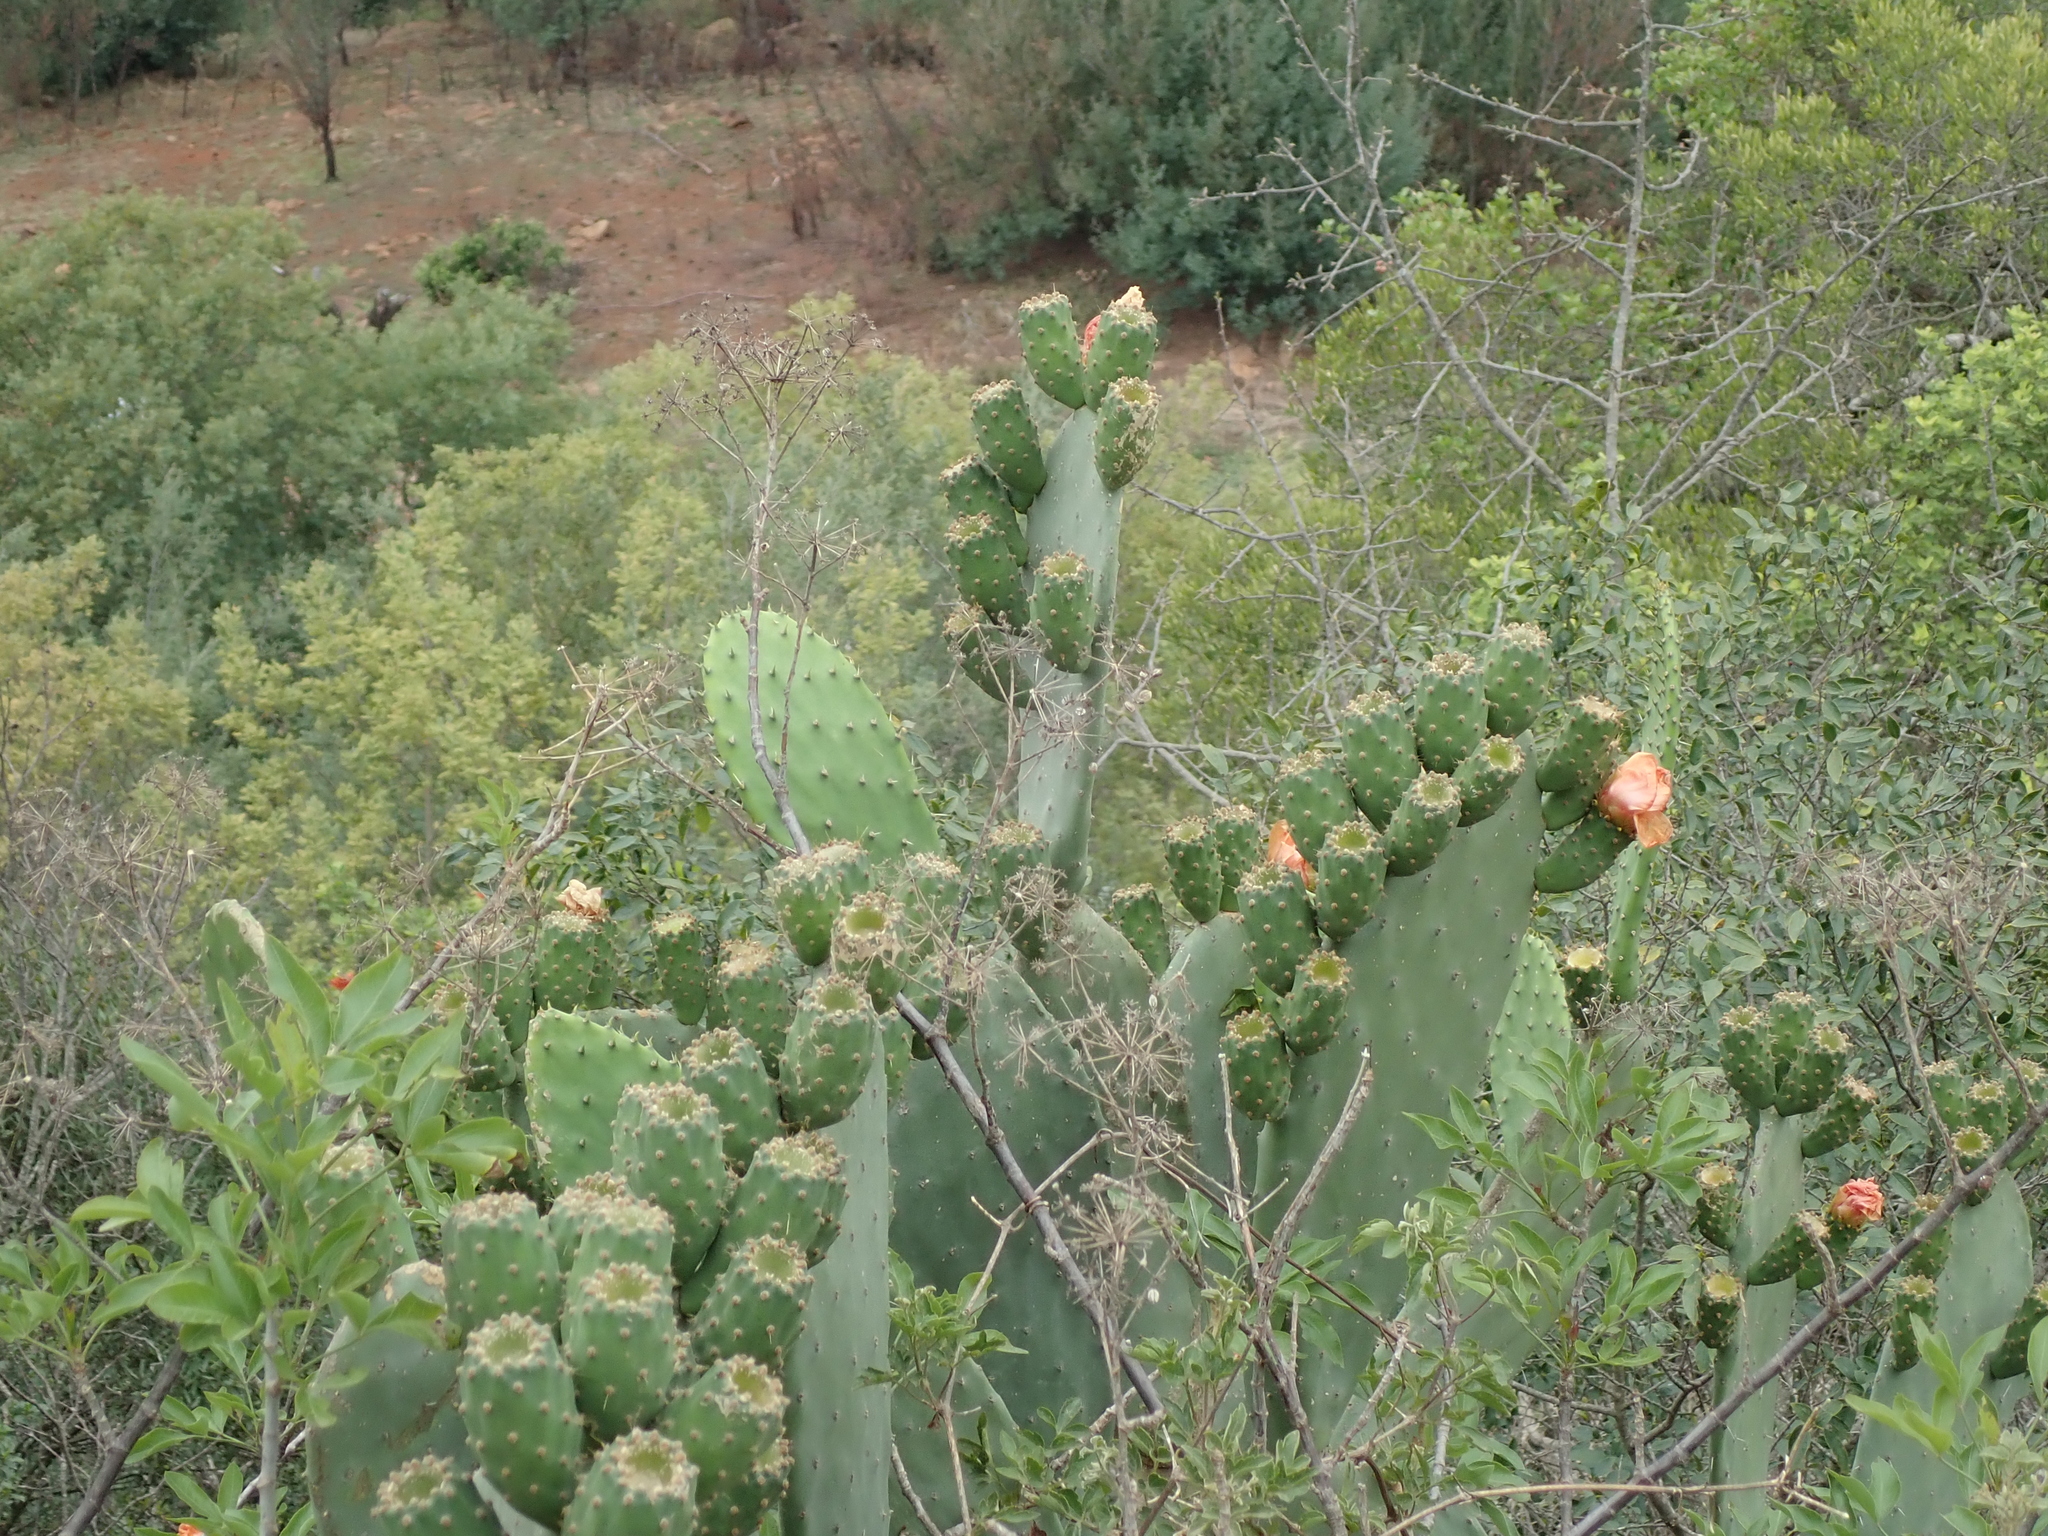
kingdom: Plantae
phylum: Tracheophyta
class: Magnoliopsida
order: Caryophyllales
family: Cactaceae
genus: Opuntia
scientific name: Opuntia ficus-indica
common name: Barbary fig
